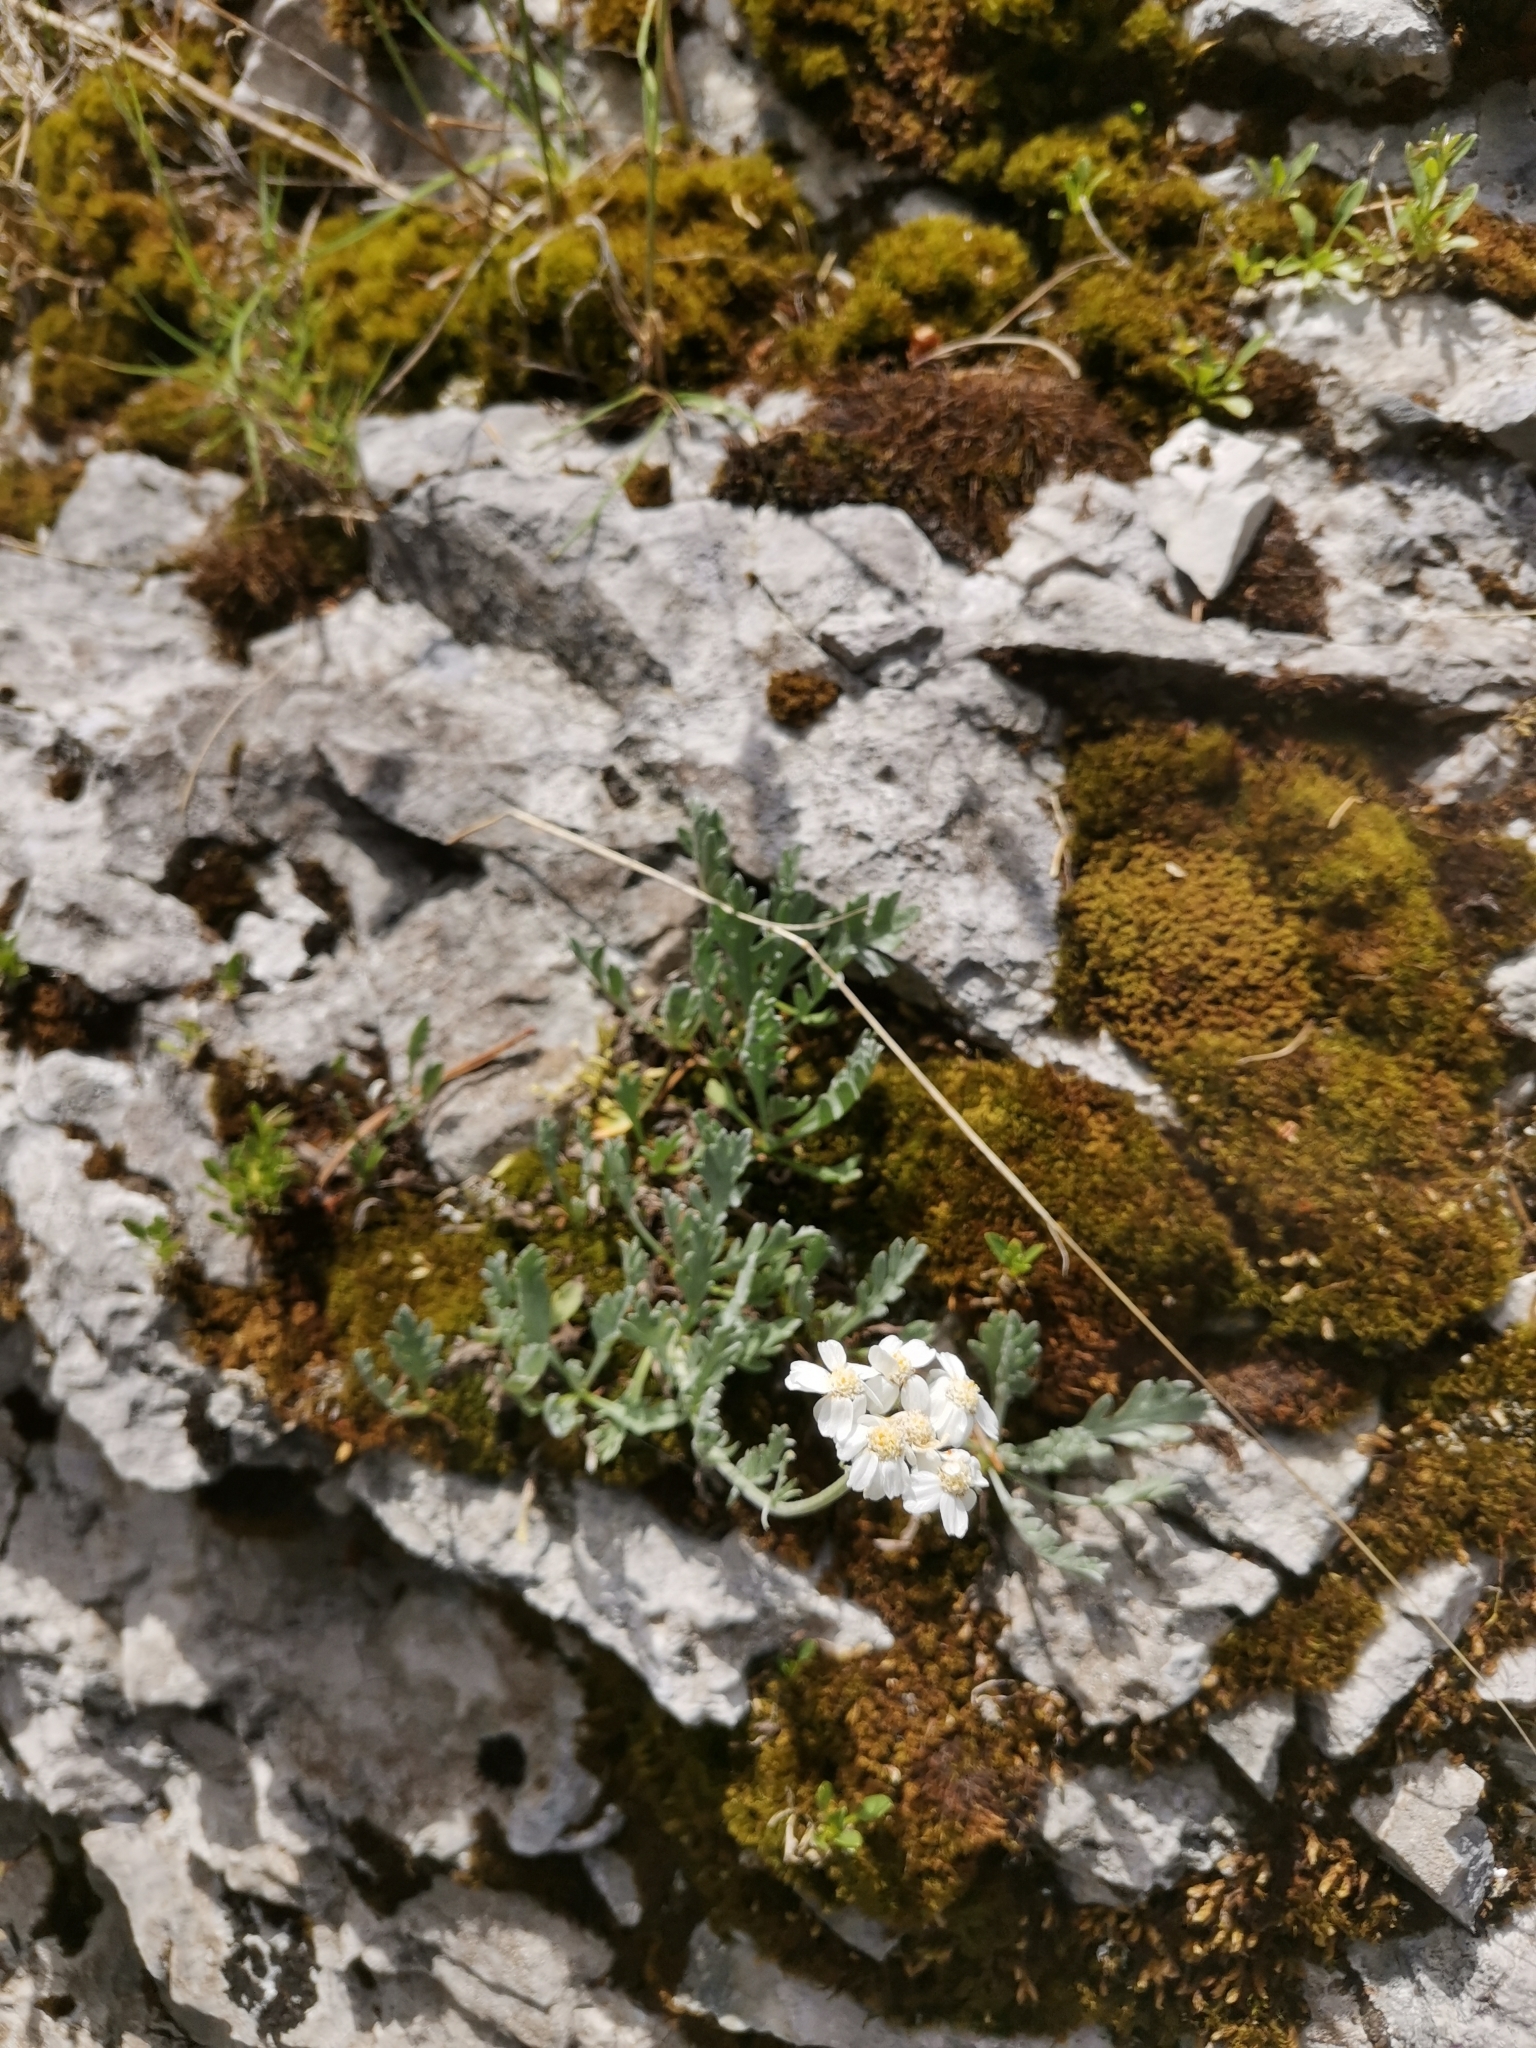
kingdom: Plantae
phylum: Tracheophyta
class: Magnoliopsida
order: Asterales
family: Asteraceae
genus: Achillea
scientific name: Achillea clavennae
